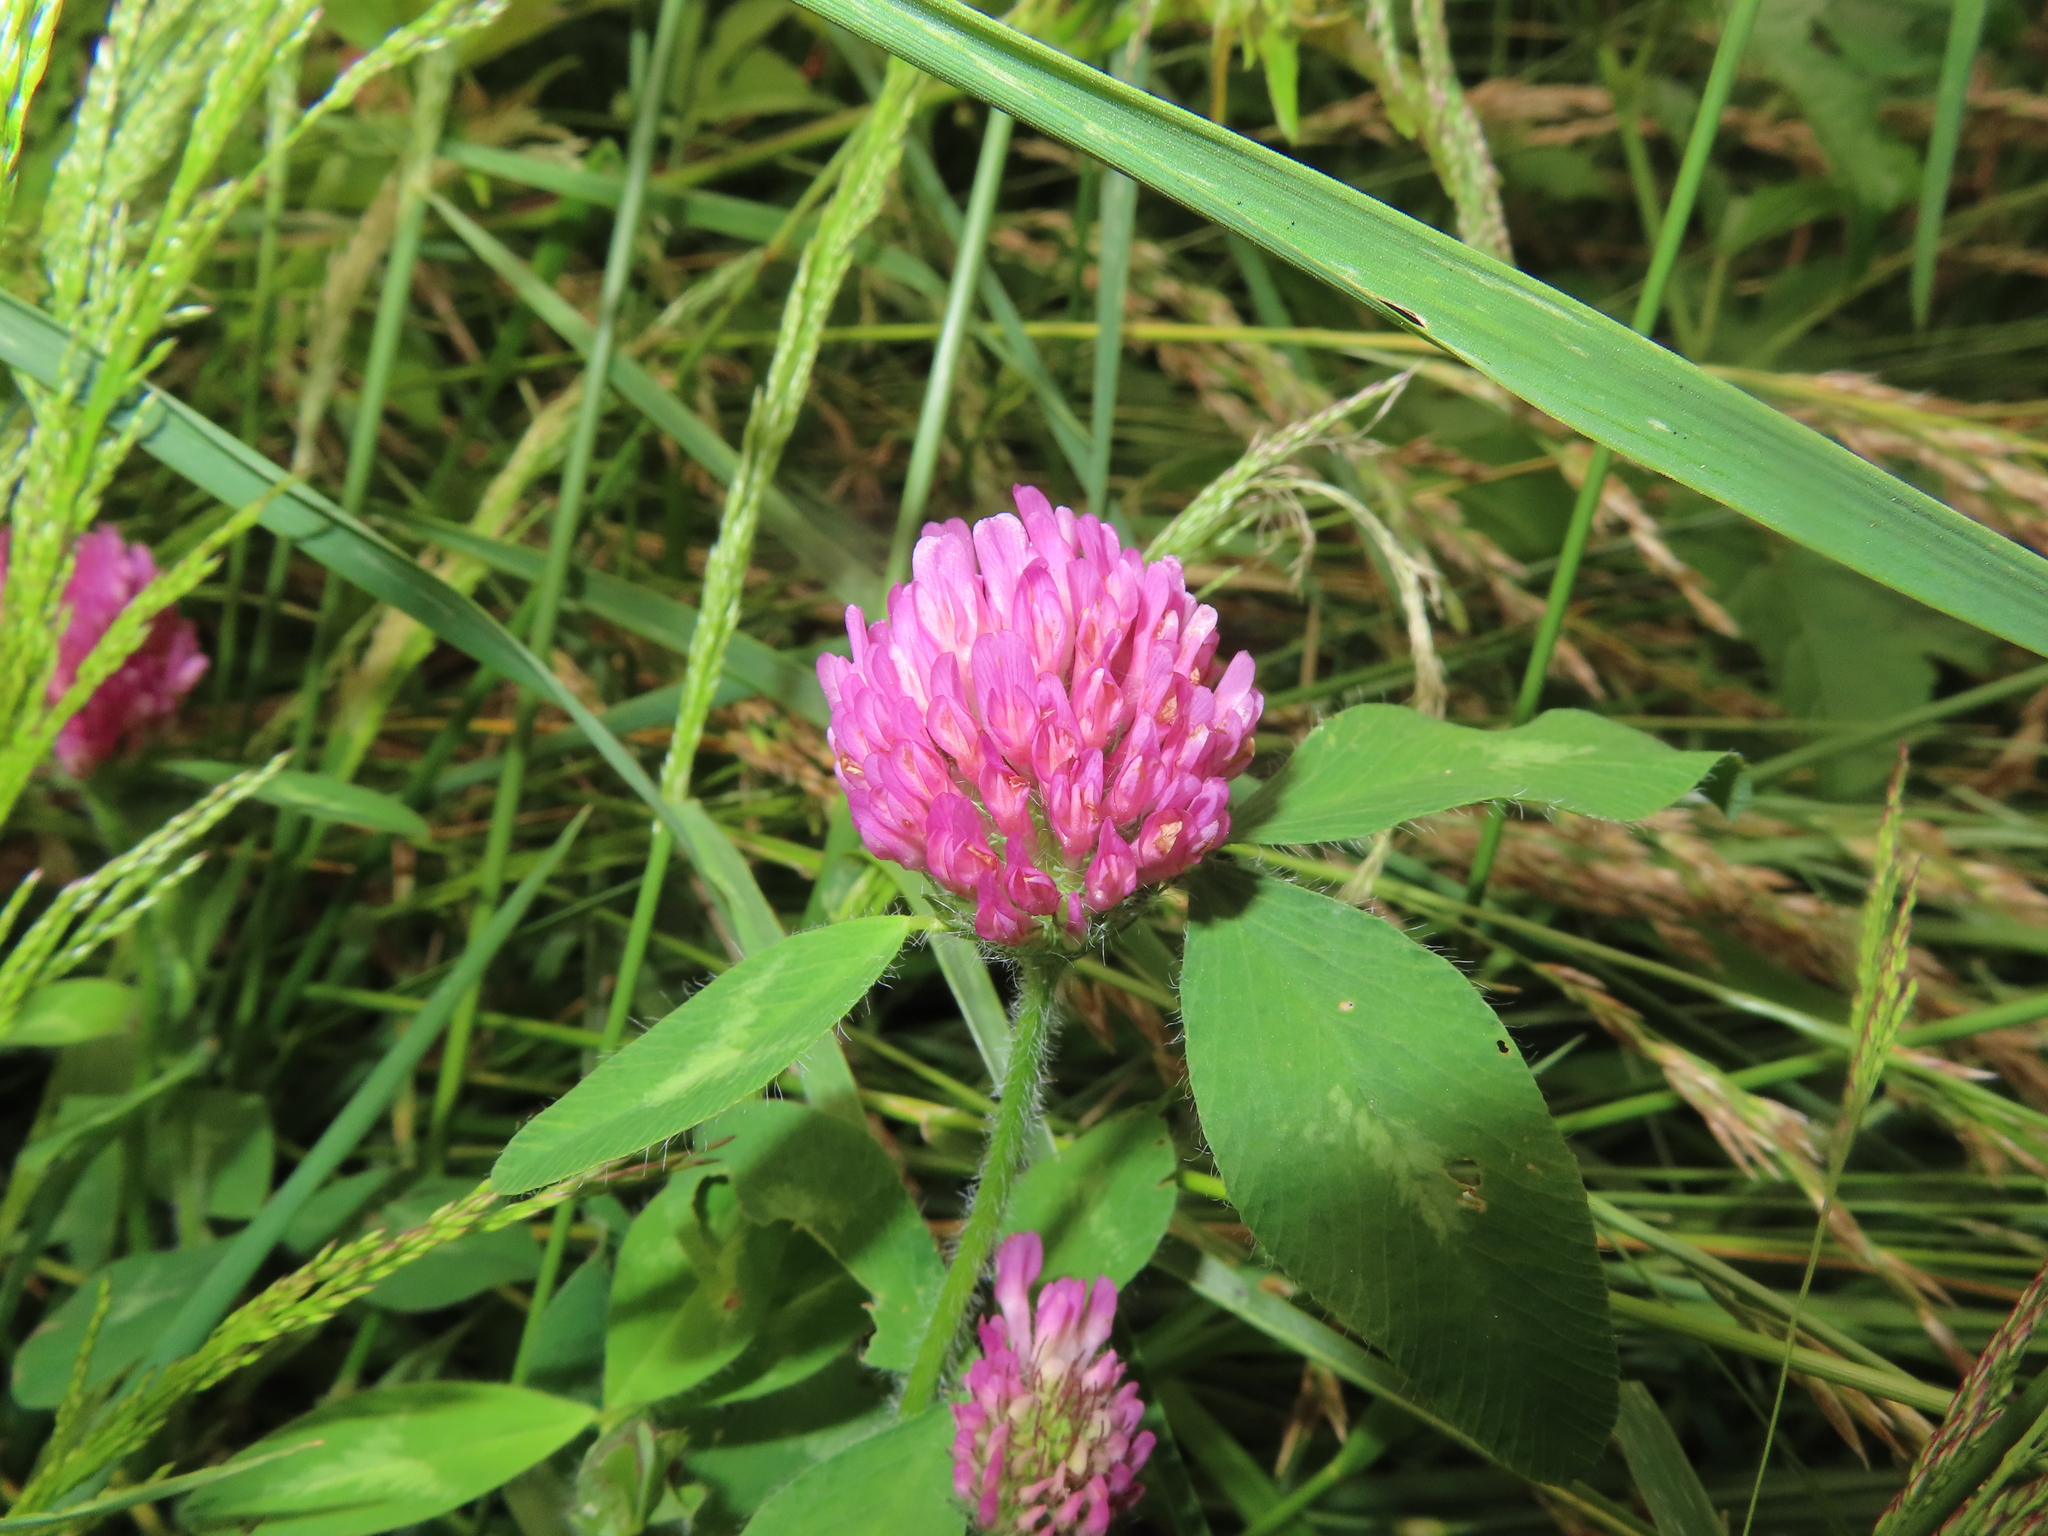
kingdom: Plantae
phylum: Tracheophyta
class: Magnoliopsida
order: Fabales
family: Fabaceae
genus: Trifolium
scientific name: Trifolium pratense
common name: Red clover
